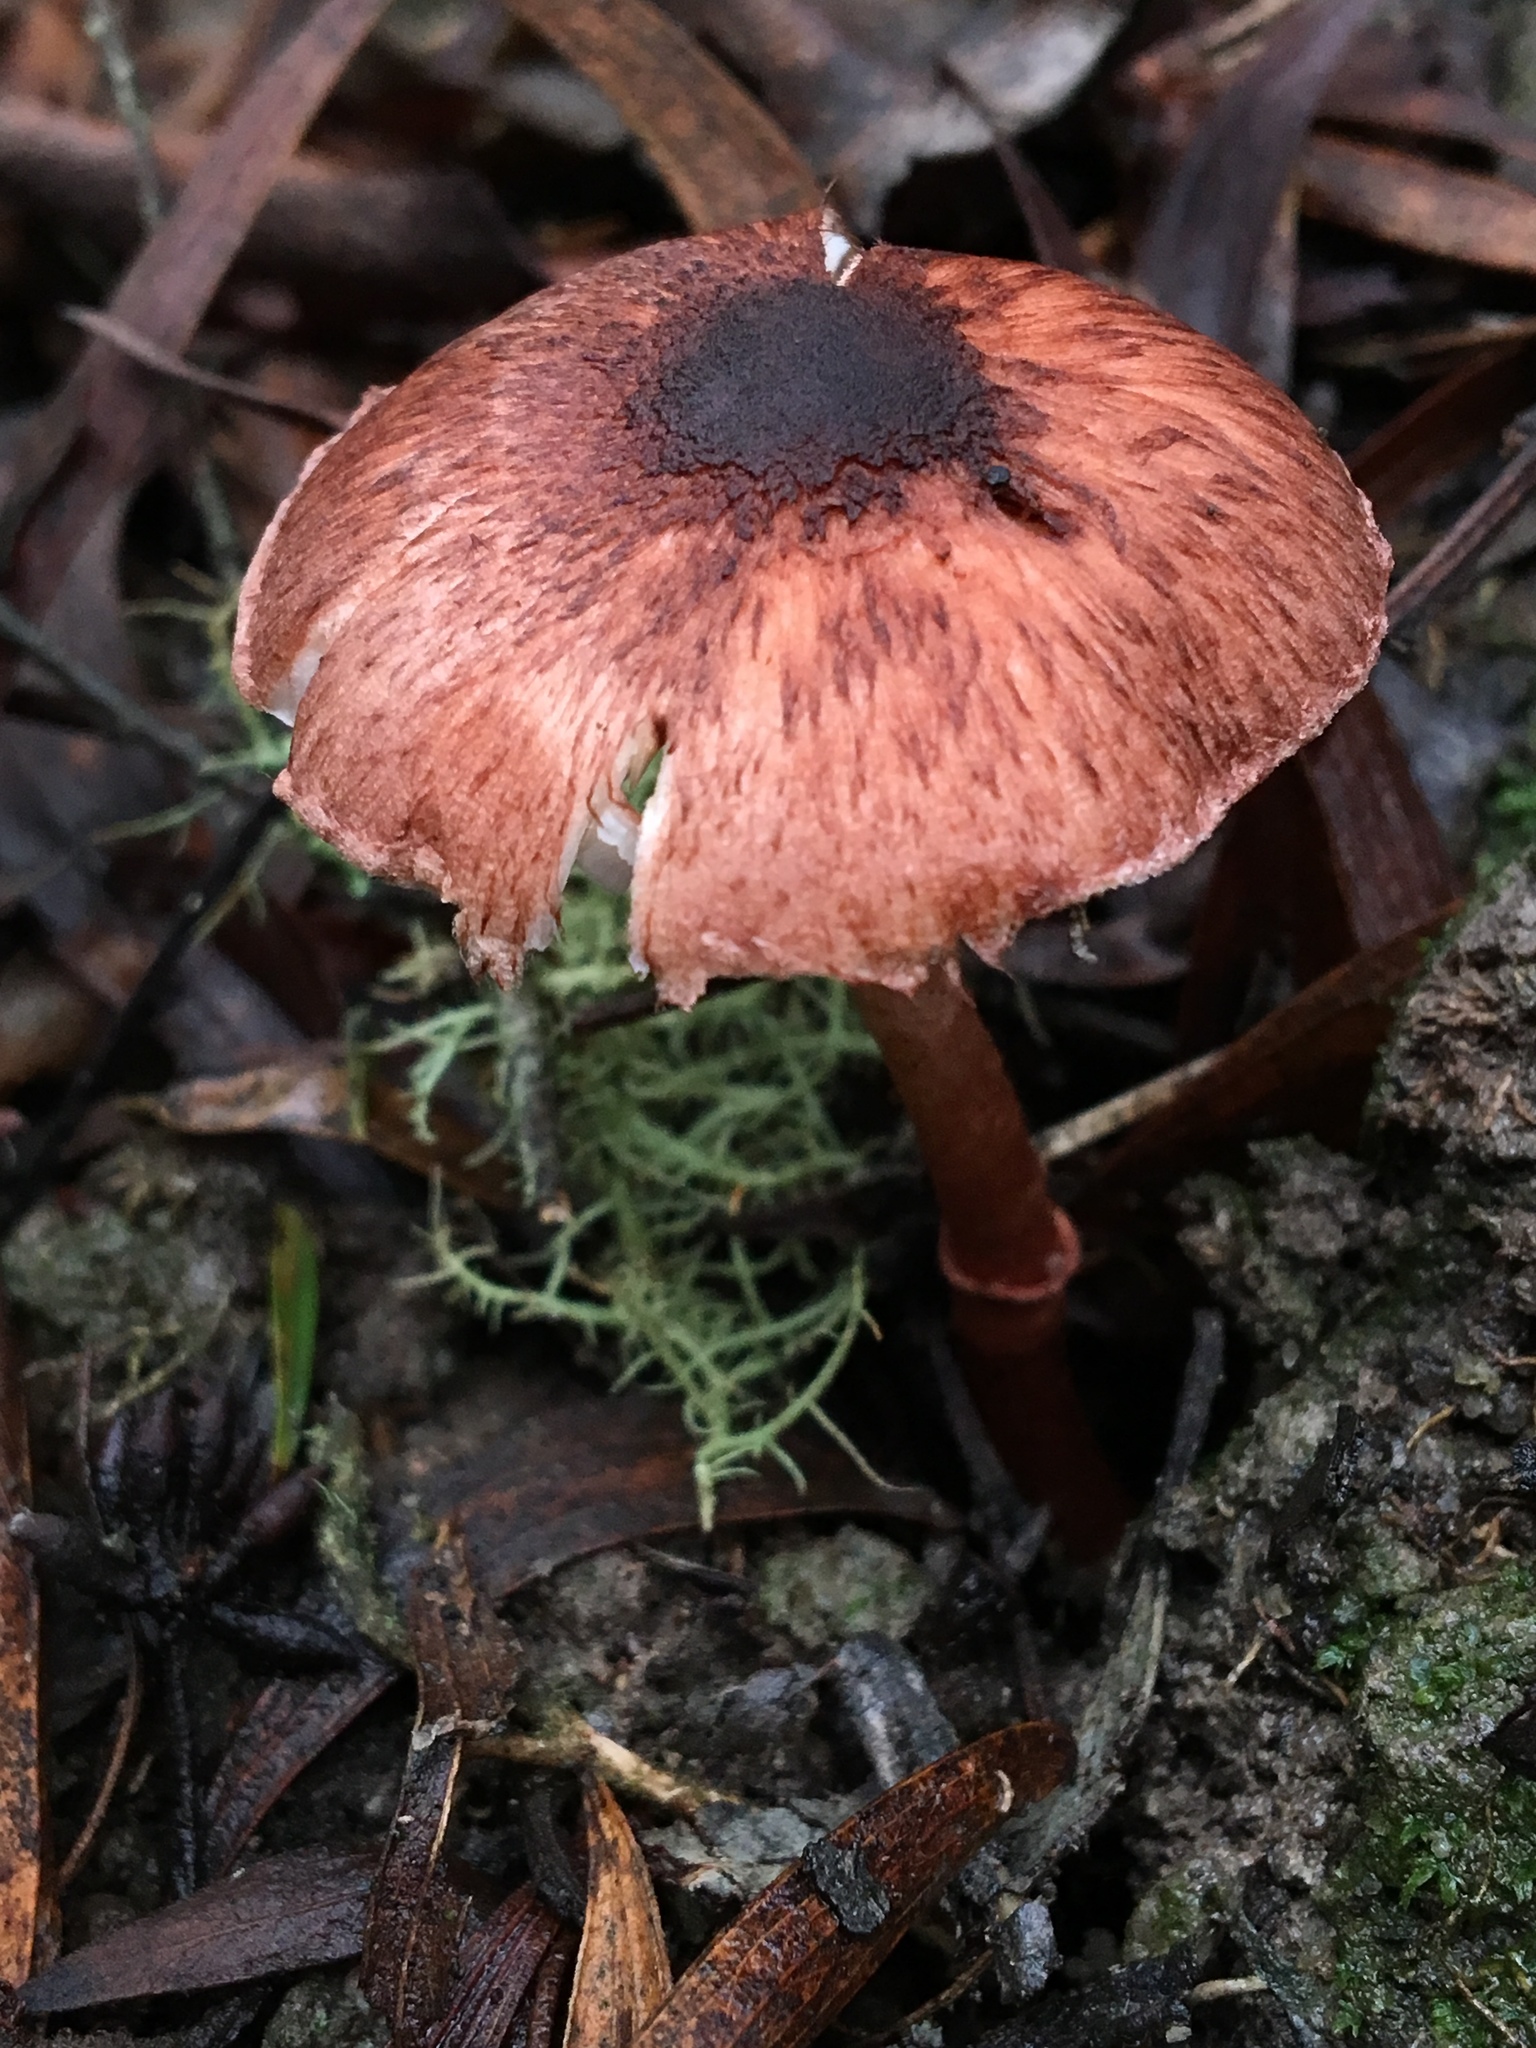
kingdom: Fungi
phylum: Basidiomycota
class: Agaricomycetes
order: Agaricales
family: Agaricaceae
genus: Lepiota
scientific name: Lepiota haemorrhagica
